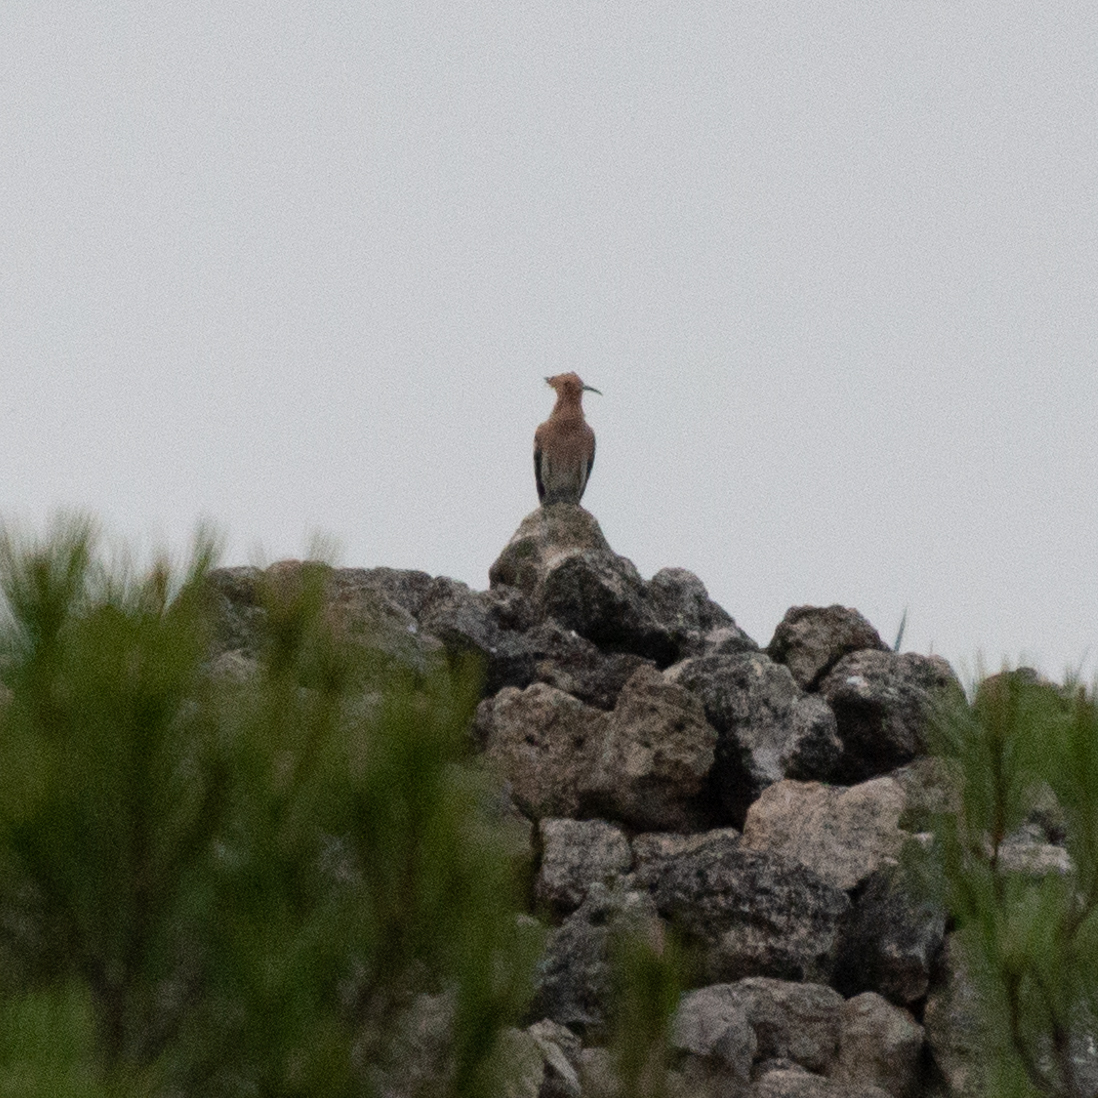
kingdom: Animalia
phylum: Chordata
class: Aves
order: Bucerotiformes
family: Upupidae
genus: Upupa
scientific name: Upupa epops
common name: Eurasian hoopoe
